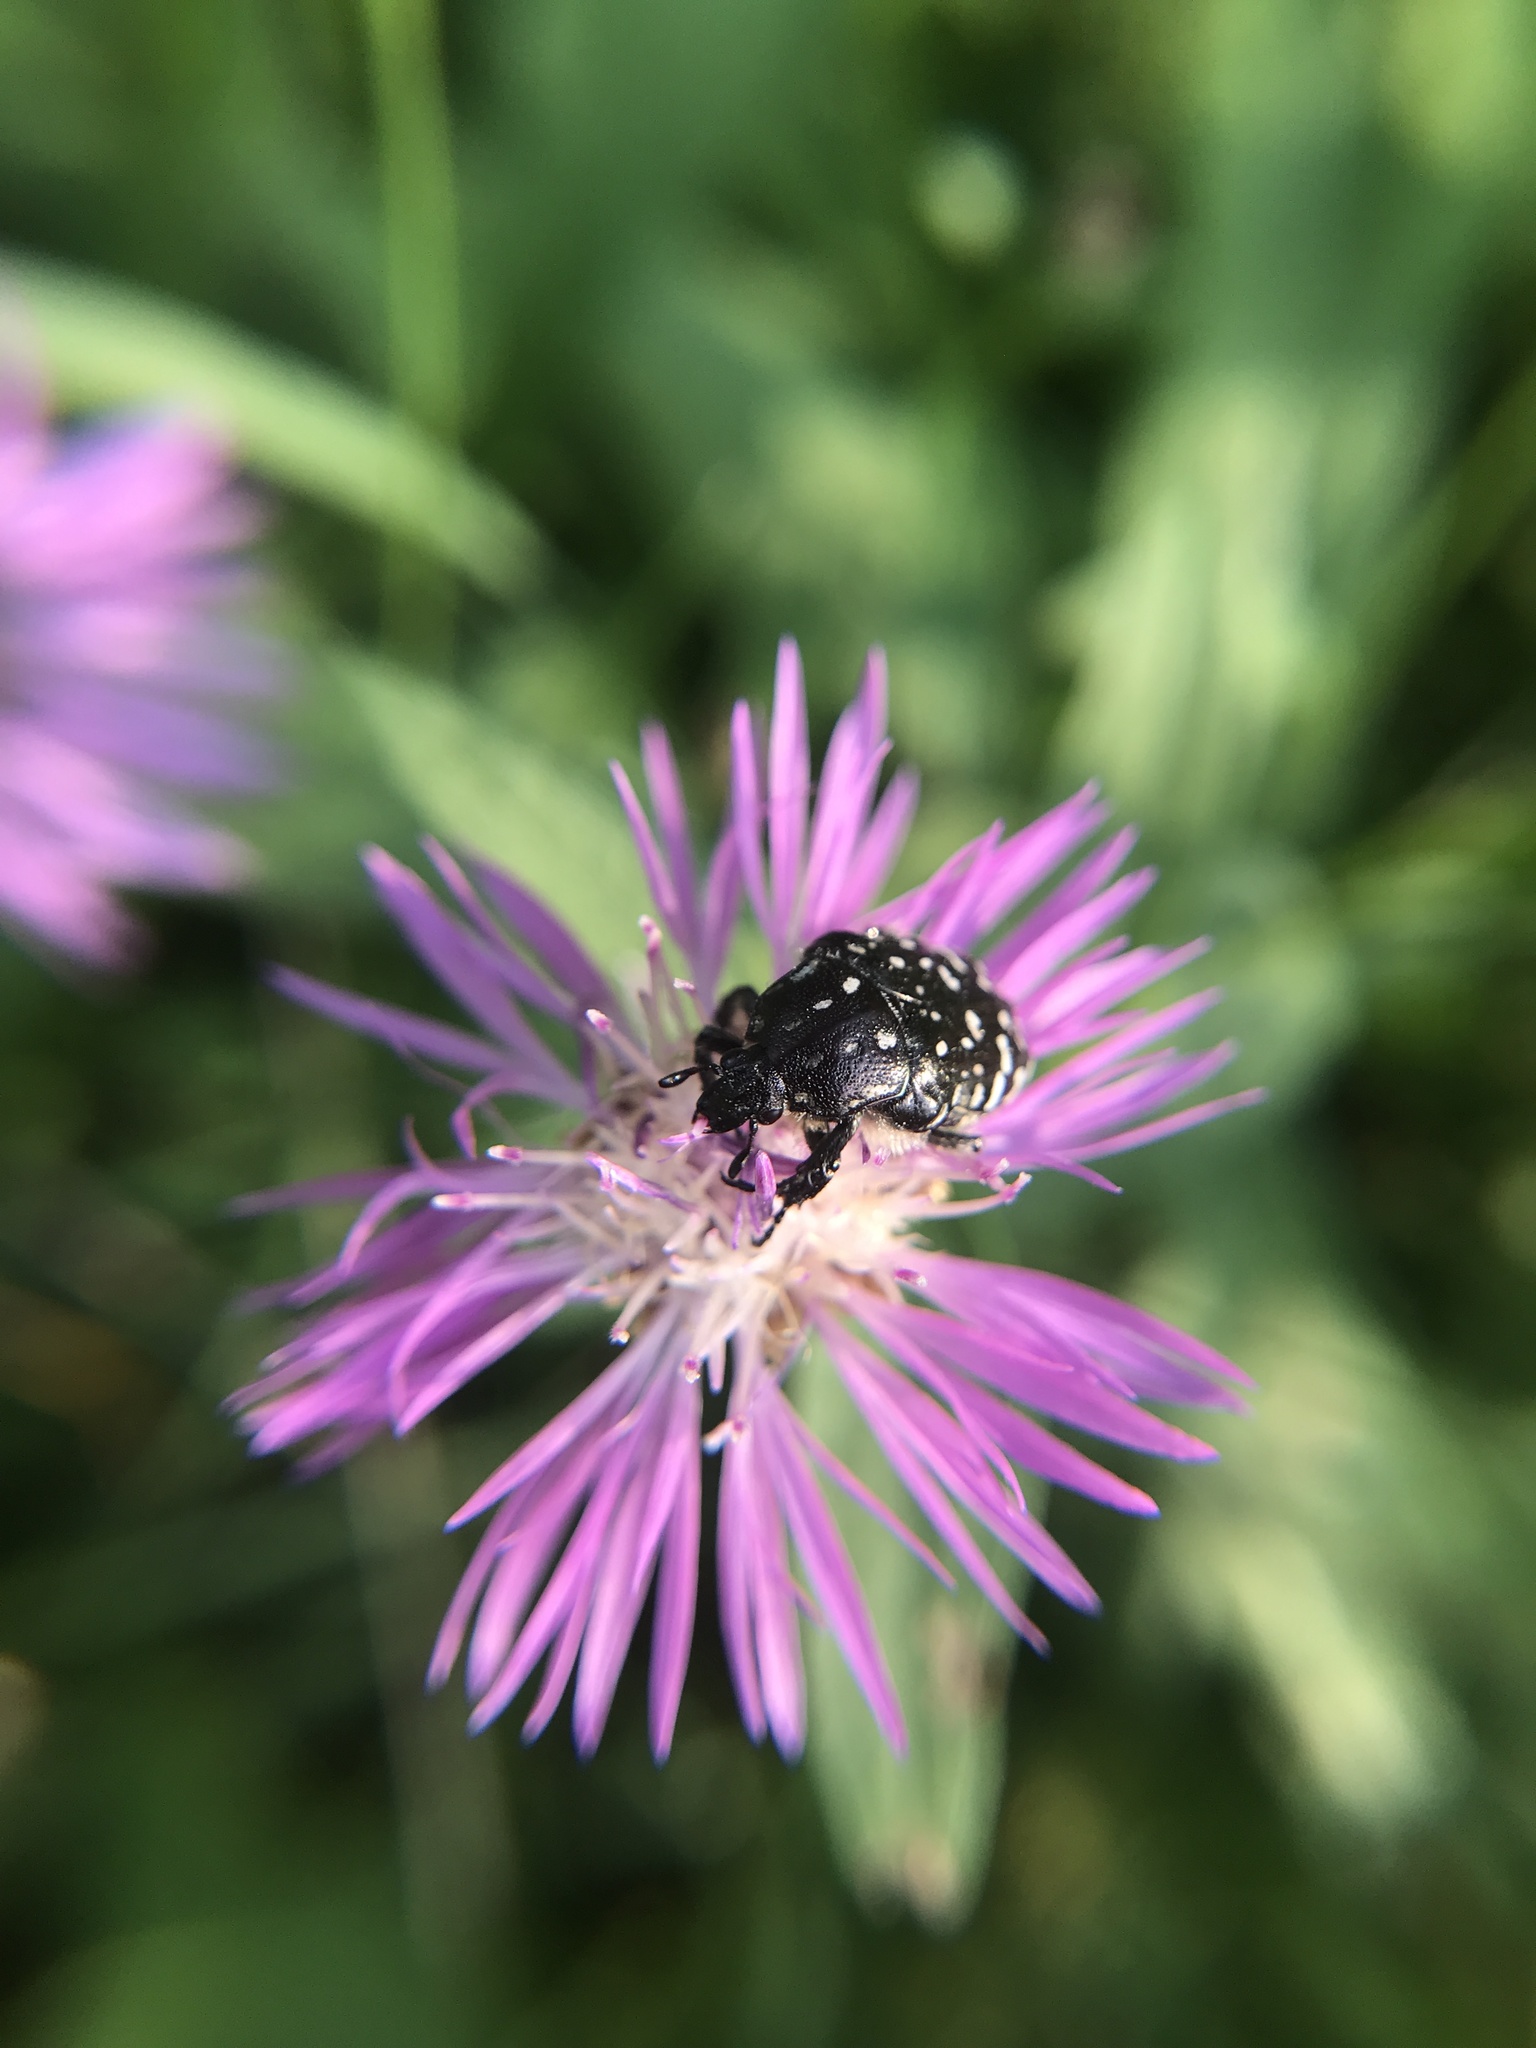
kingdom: Animalia
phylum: Arthropoda
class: Insecta
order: Coleoptera
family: Scarabaeidae
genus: Oxythyrea
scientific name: Oxythyrea funesta
